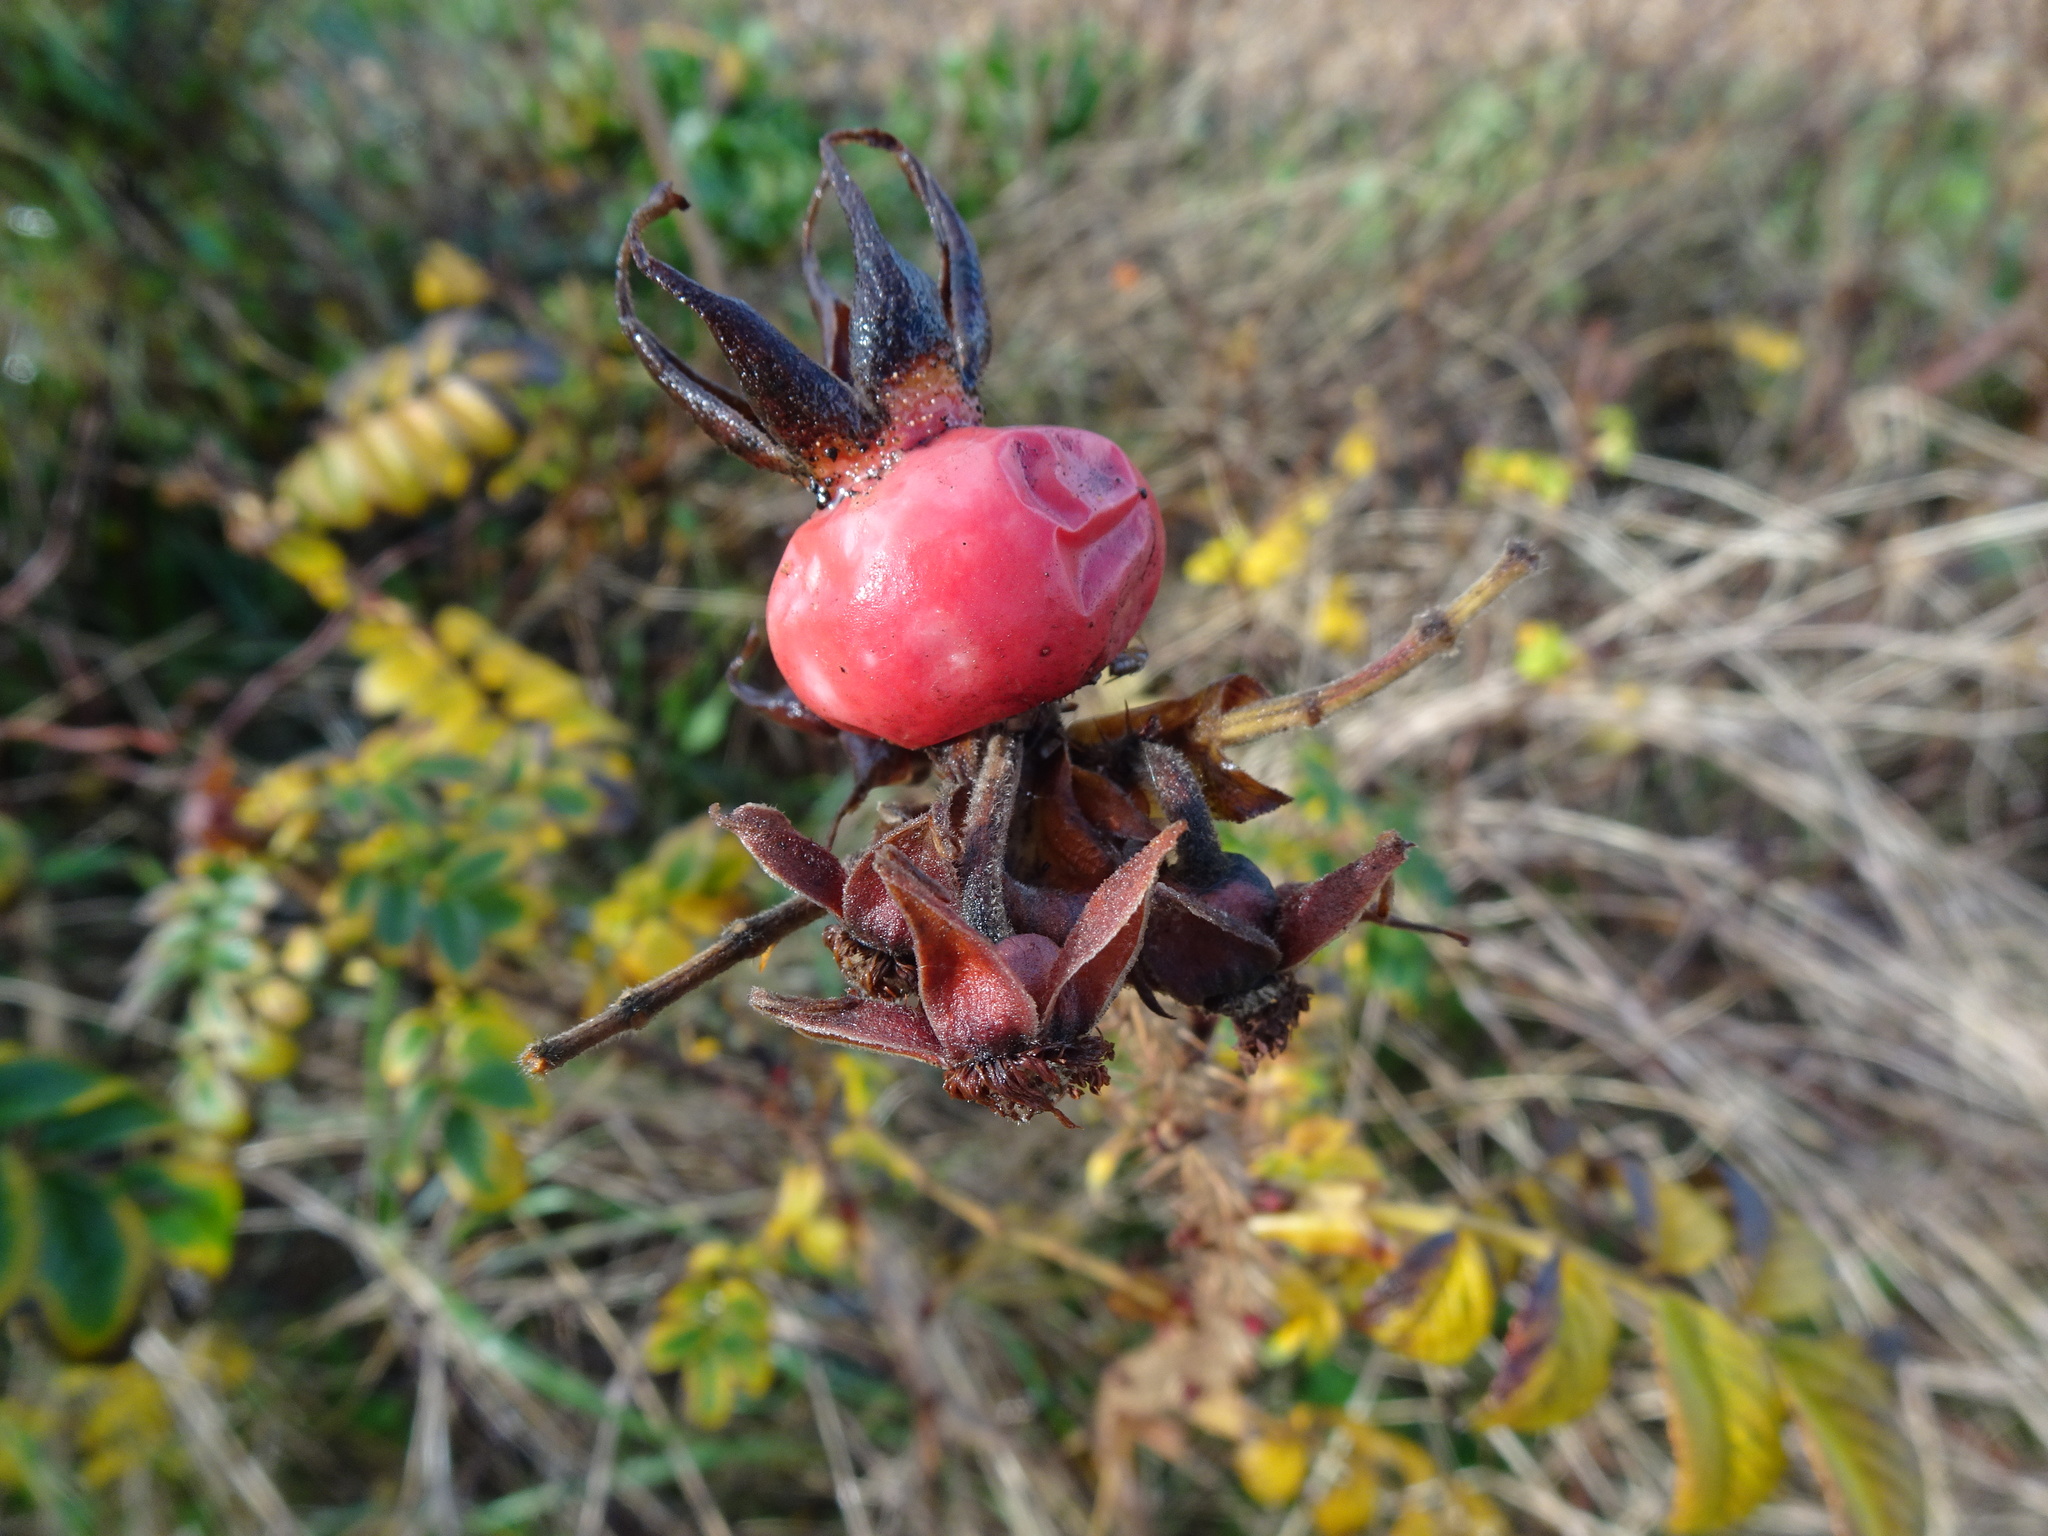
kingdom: Plantae
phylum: Tracheophyta
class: Magnoliopsida
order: Rosales
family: Rosaceae
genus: Rosa
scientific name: Rosa rugosa
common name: Japanese rose
